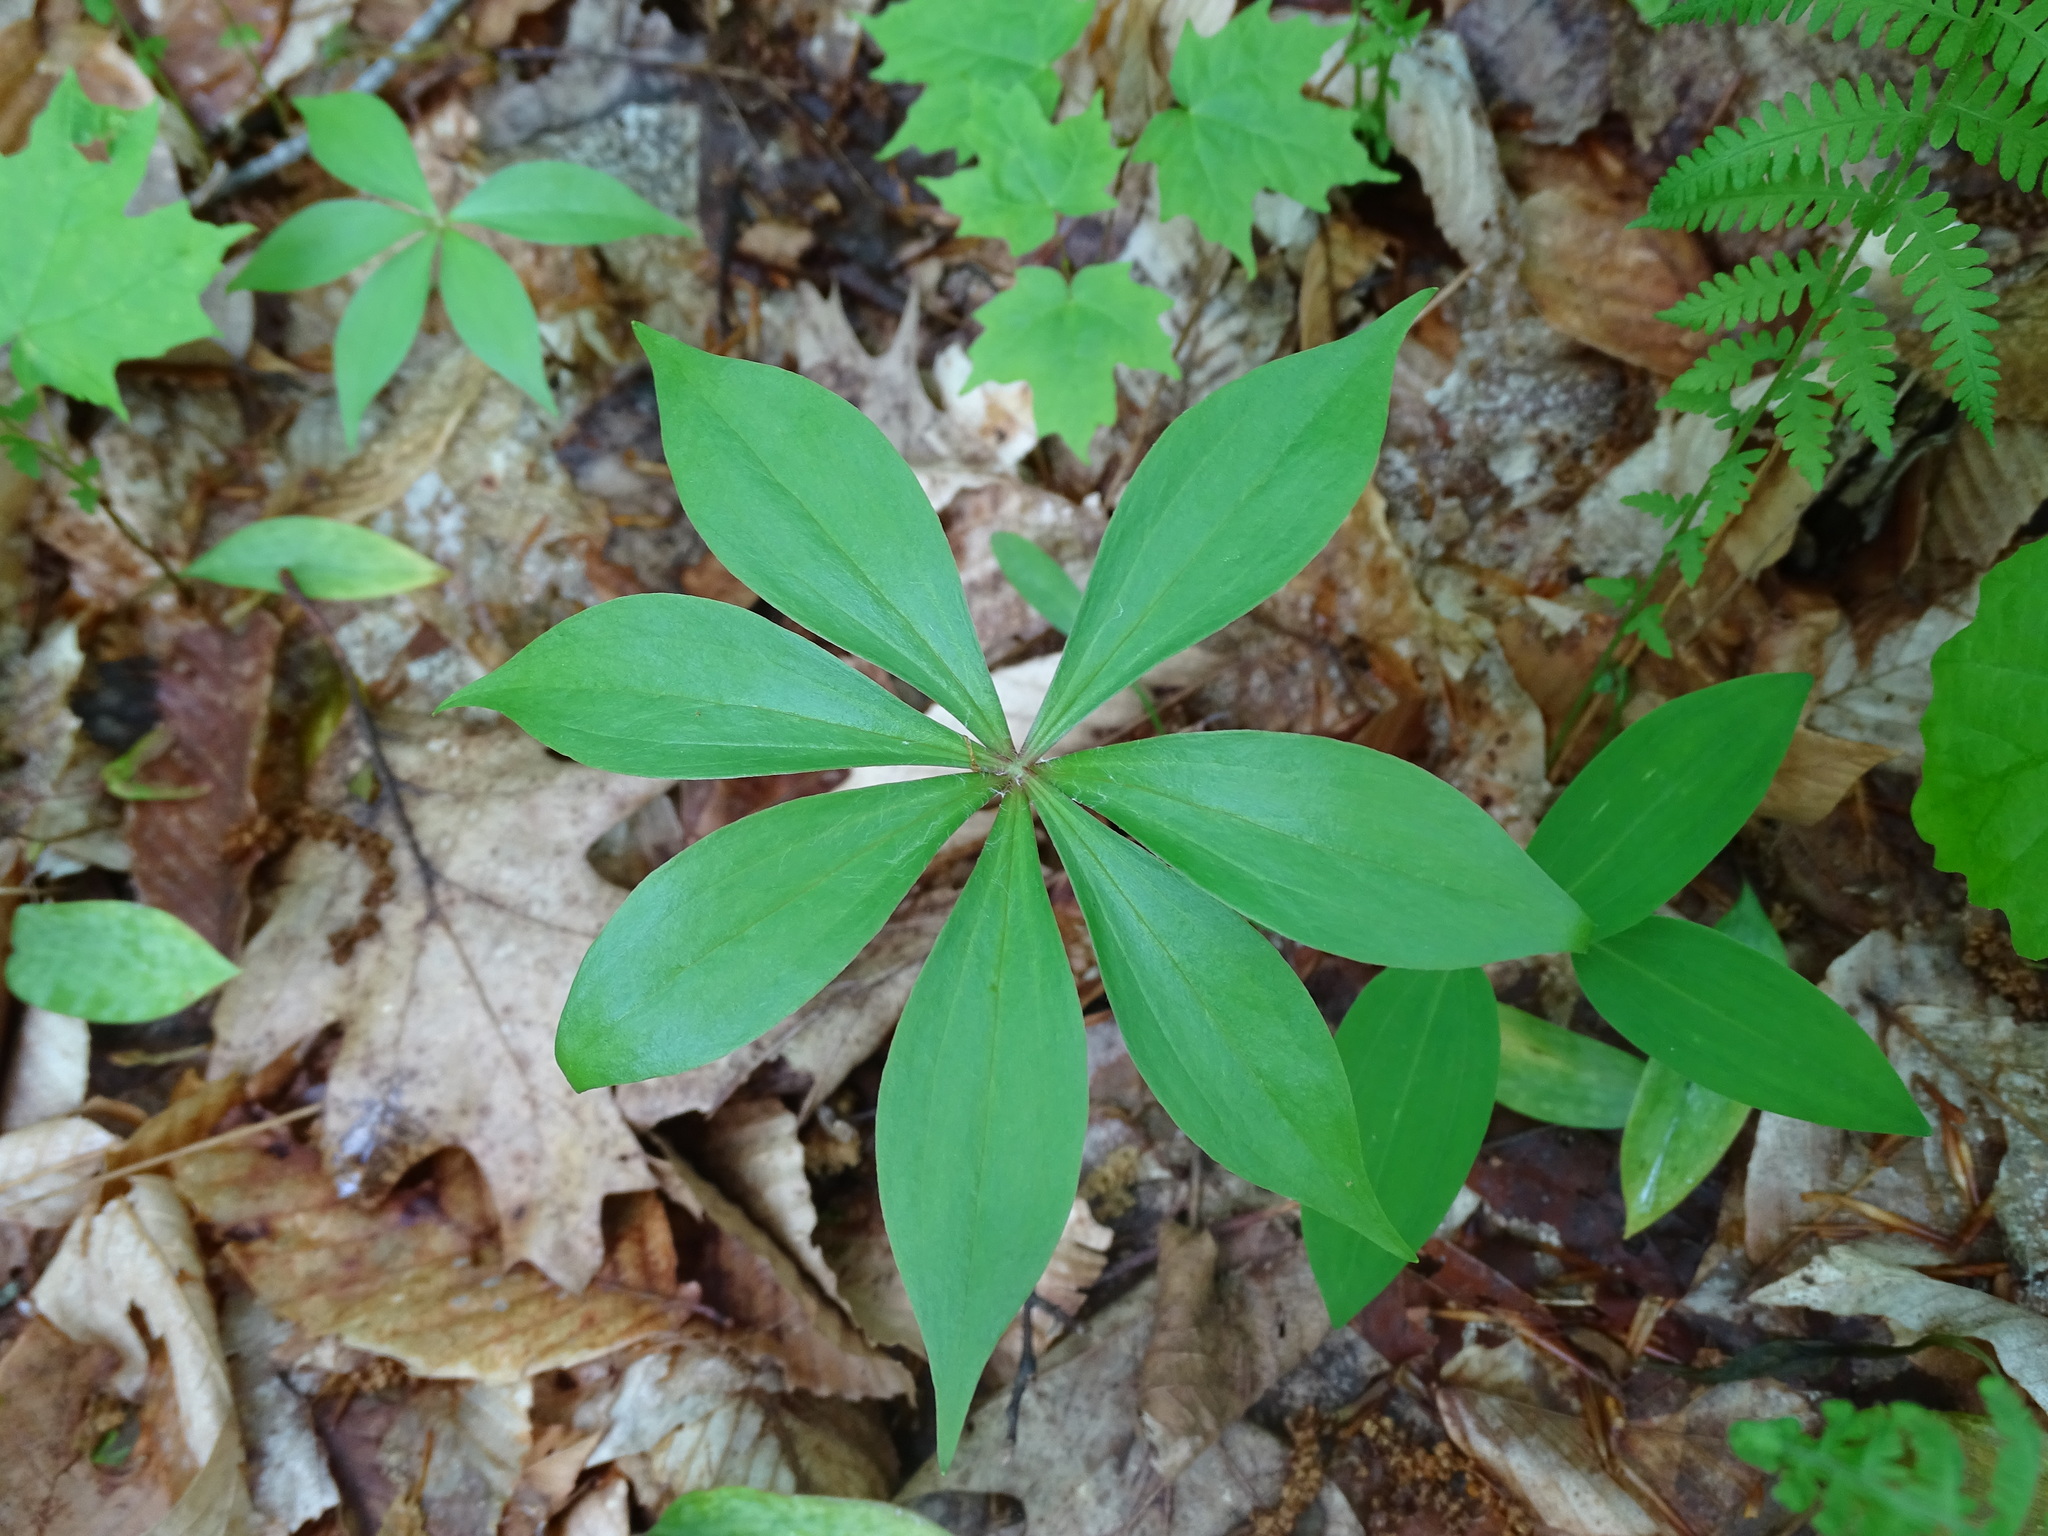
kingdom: Plantae
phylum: Tracheophyta
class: Liliopsida
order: Liliales
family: Liliaceae
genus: Medeola
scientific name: Medeola virginiana
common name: Indian cucumber-root
